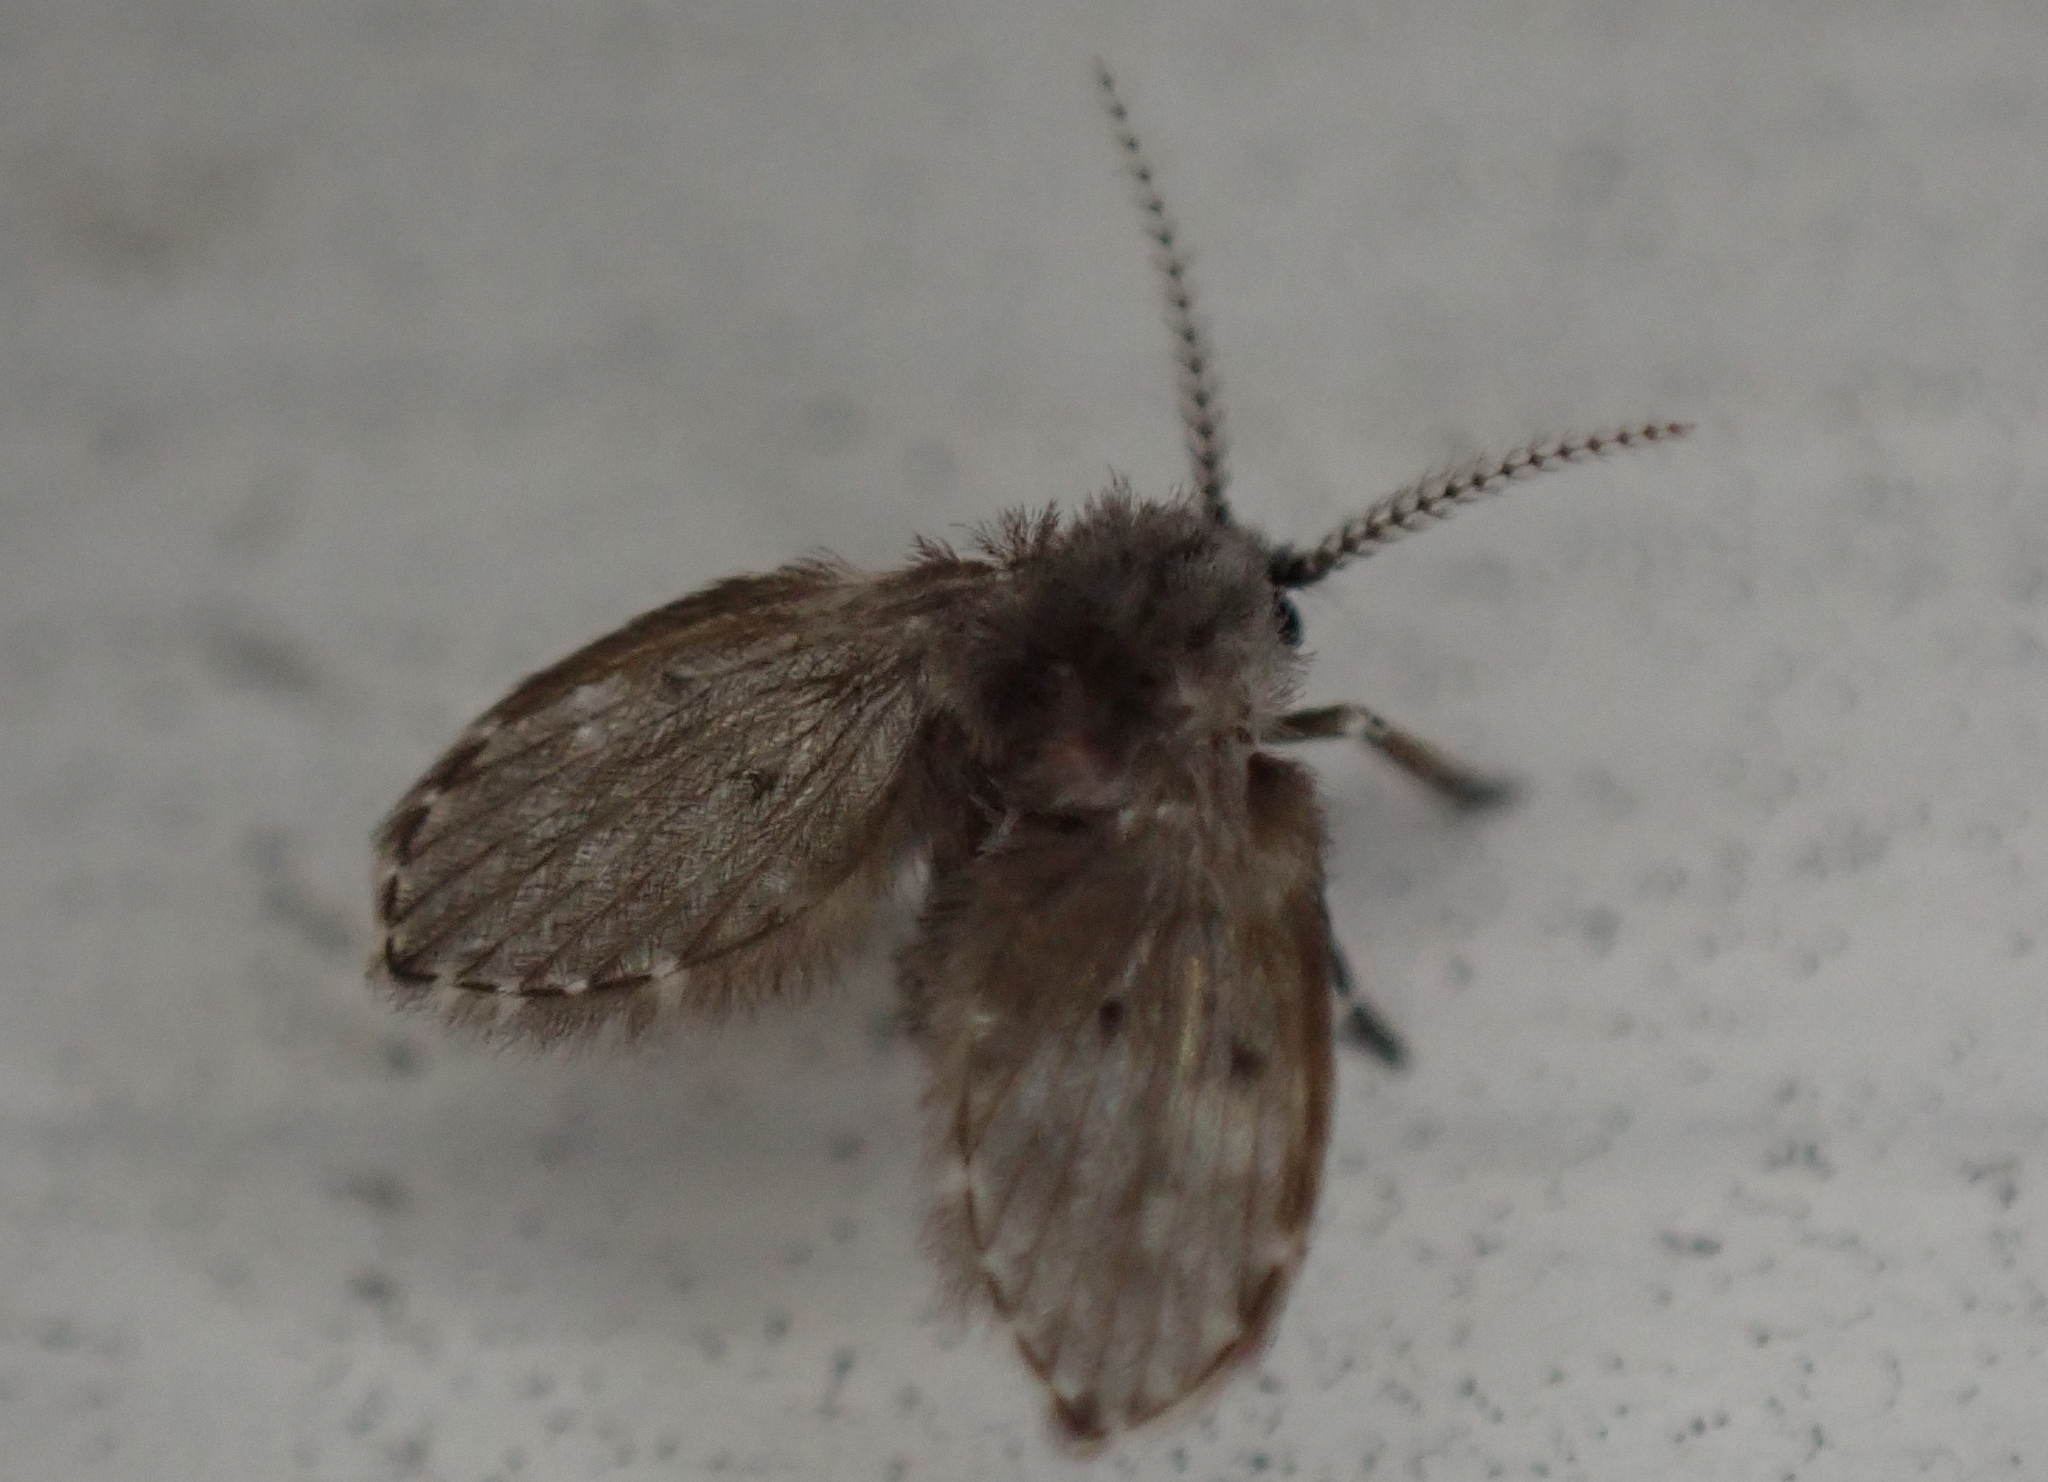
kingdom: Animalia
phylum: Arthropoda
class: Insecta
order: Diptera
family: Psychodidae
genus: Clogmia
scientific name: Clogmia albipunctatus
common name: White-spotted moth fly
